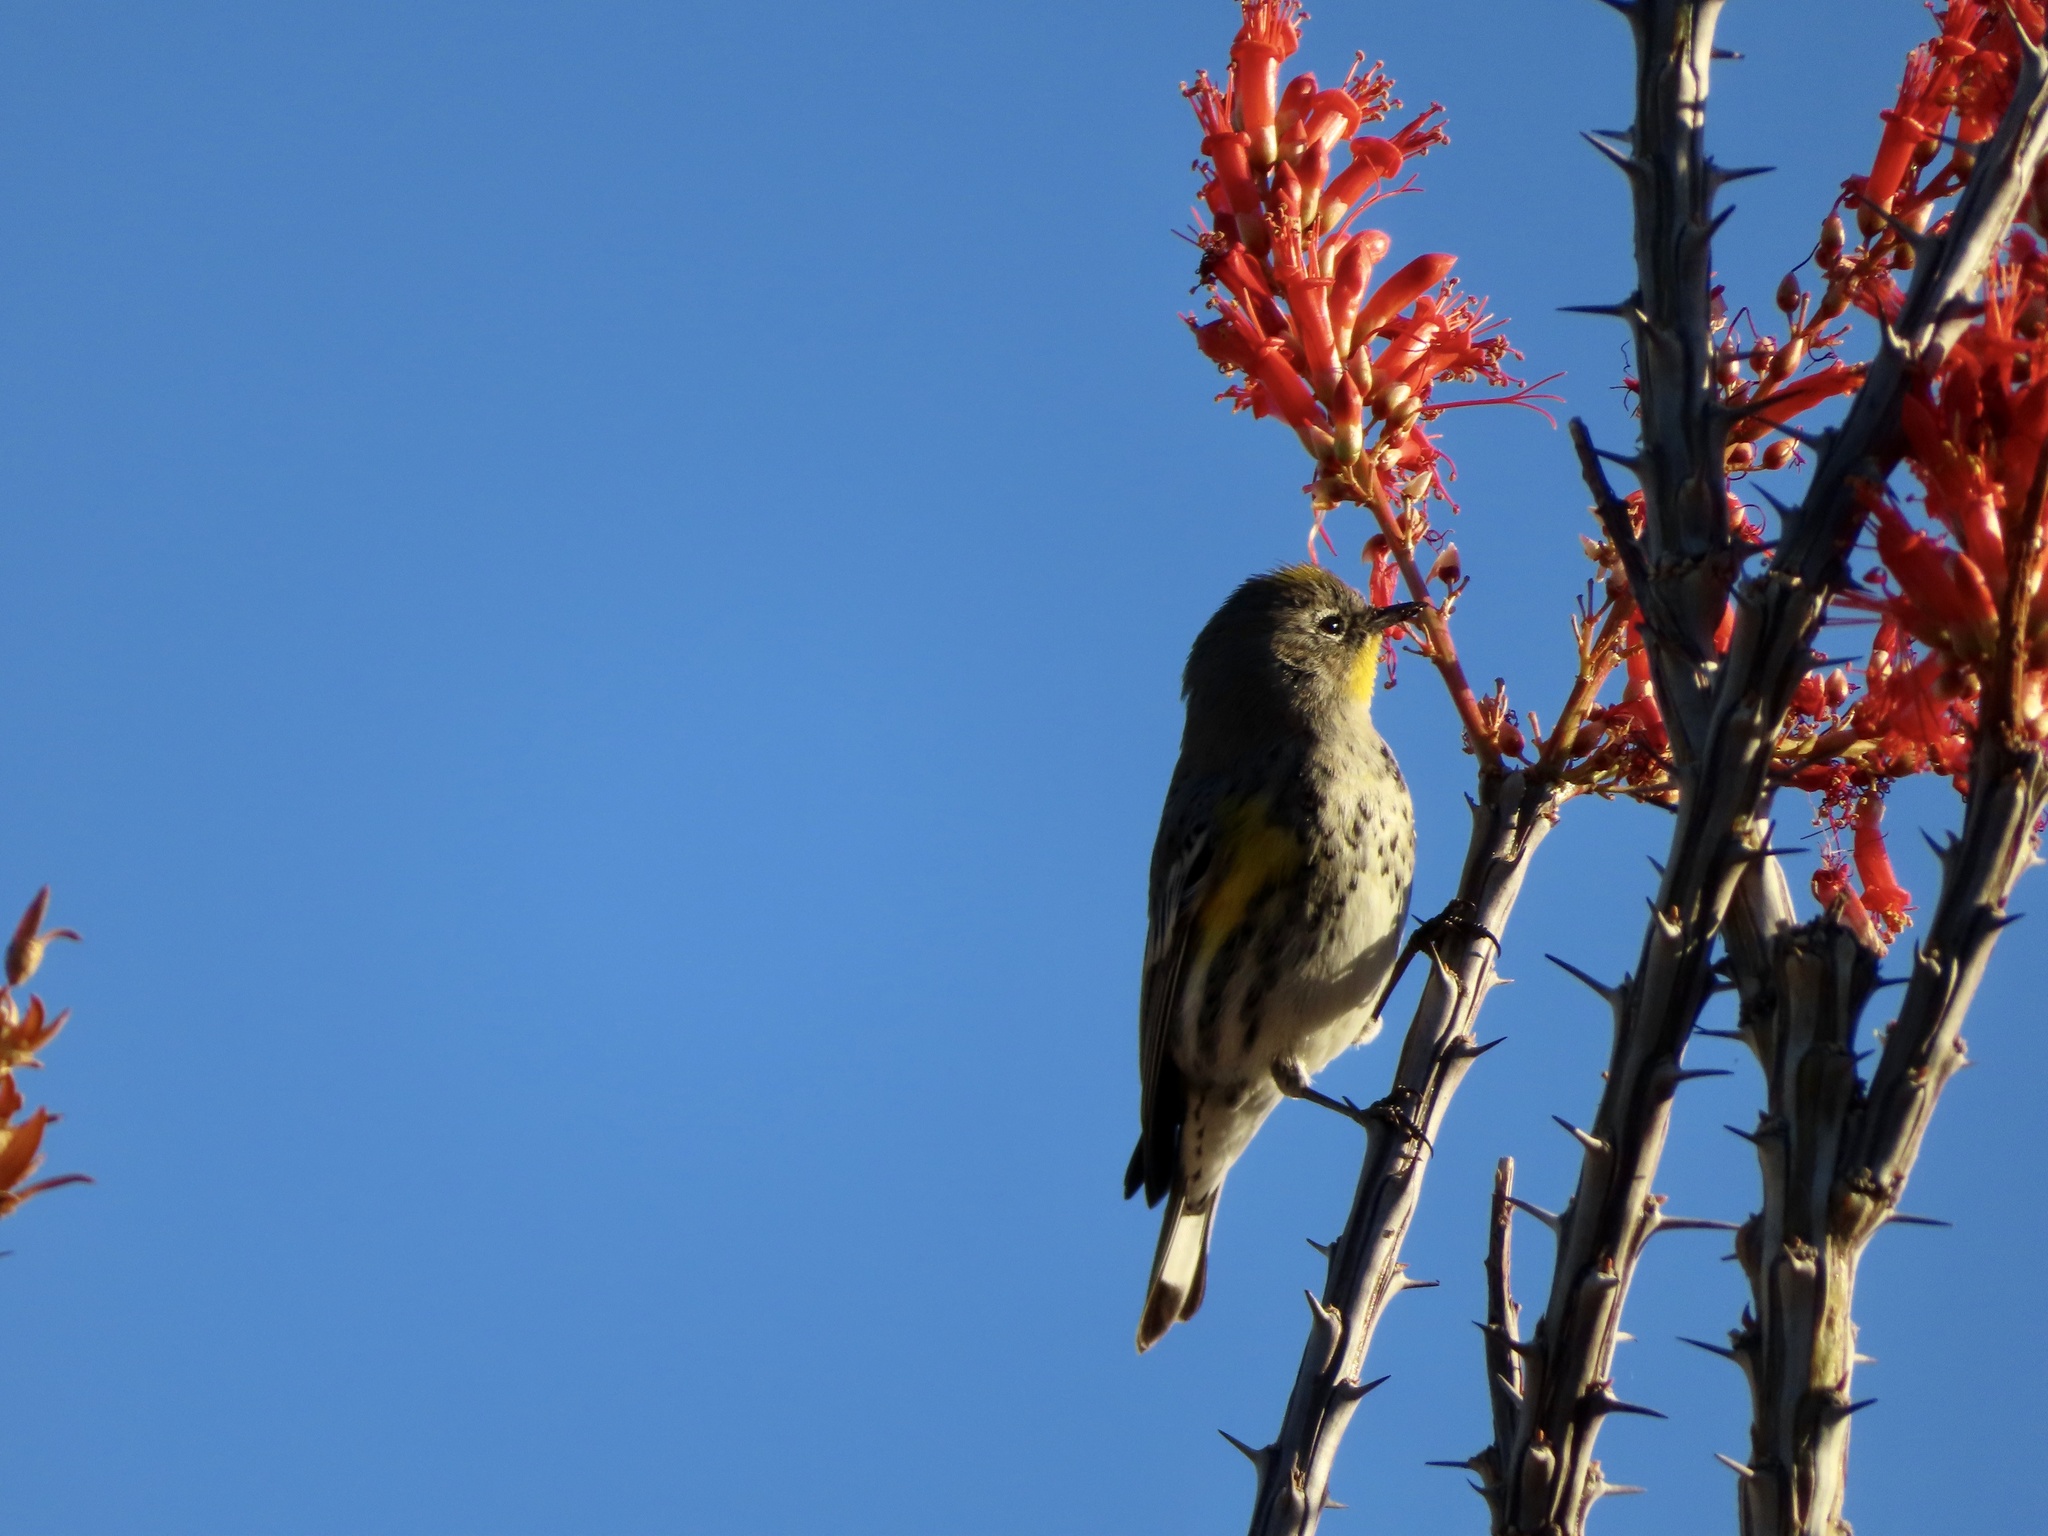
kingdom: Animalia
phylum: Chordata
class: Aves
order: Passeriformes
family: Parulidae
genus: Setophaga
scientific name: Setophaga coronata
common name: Myrtle warbler
